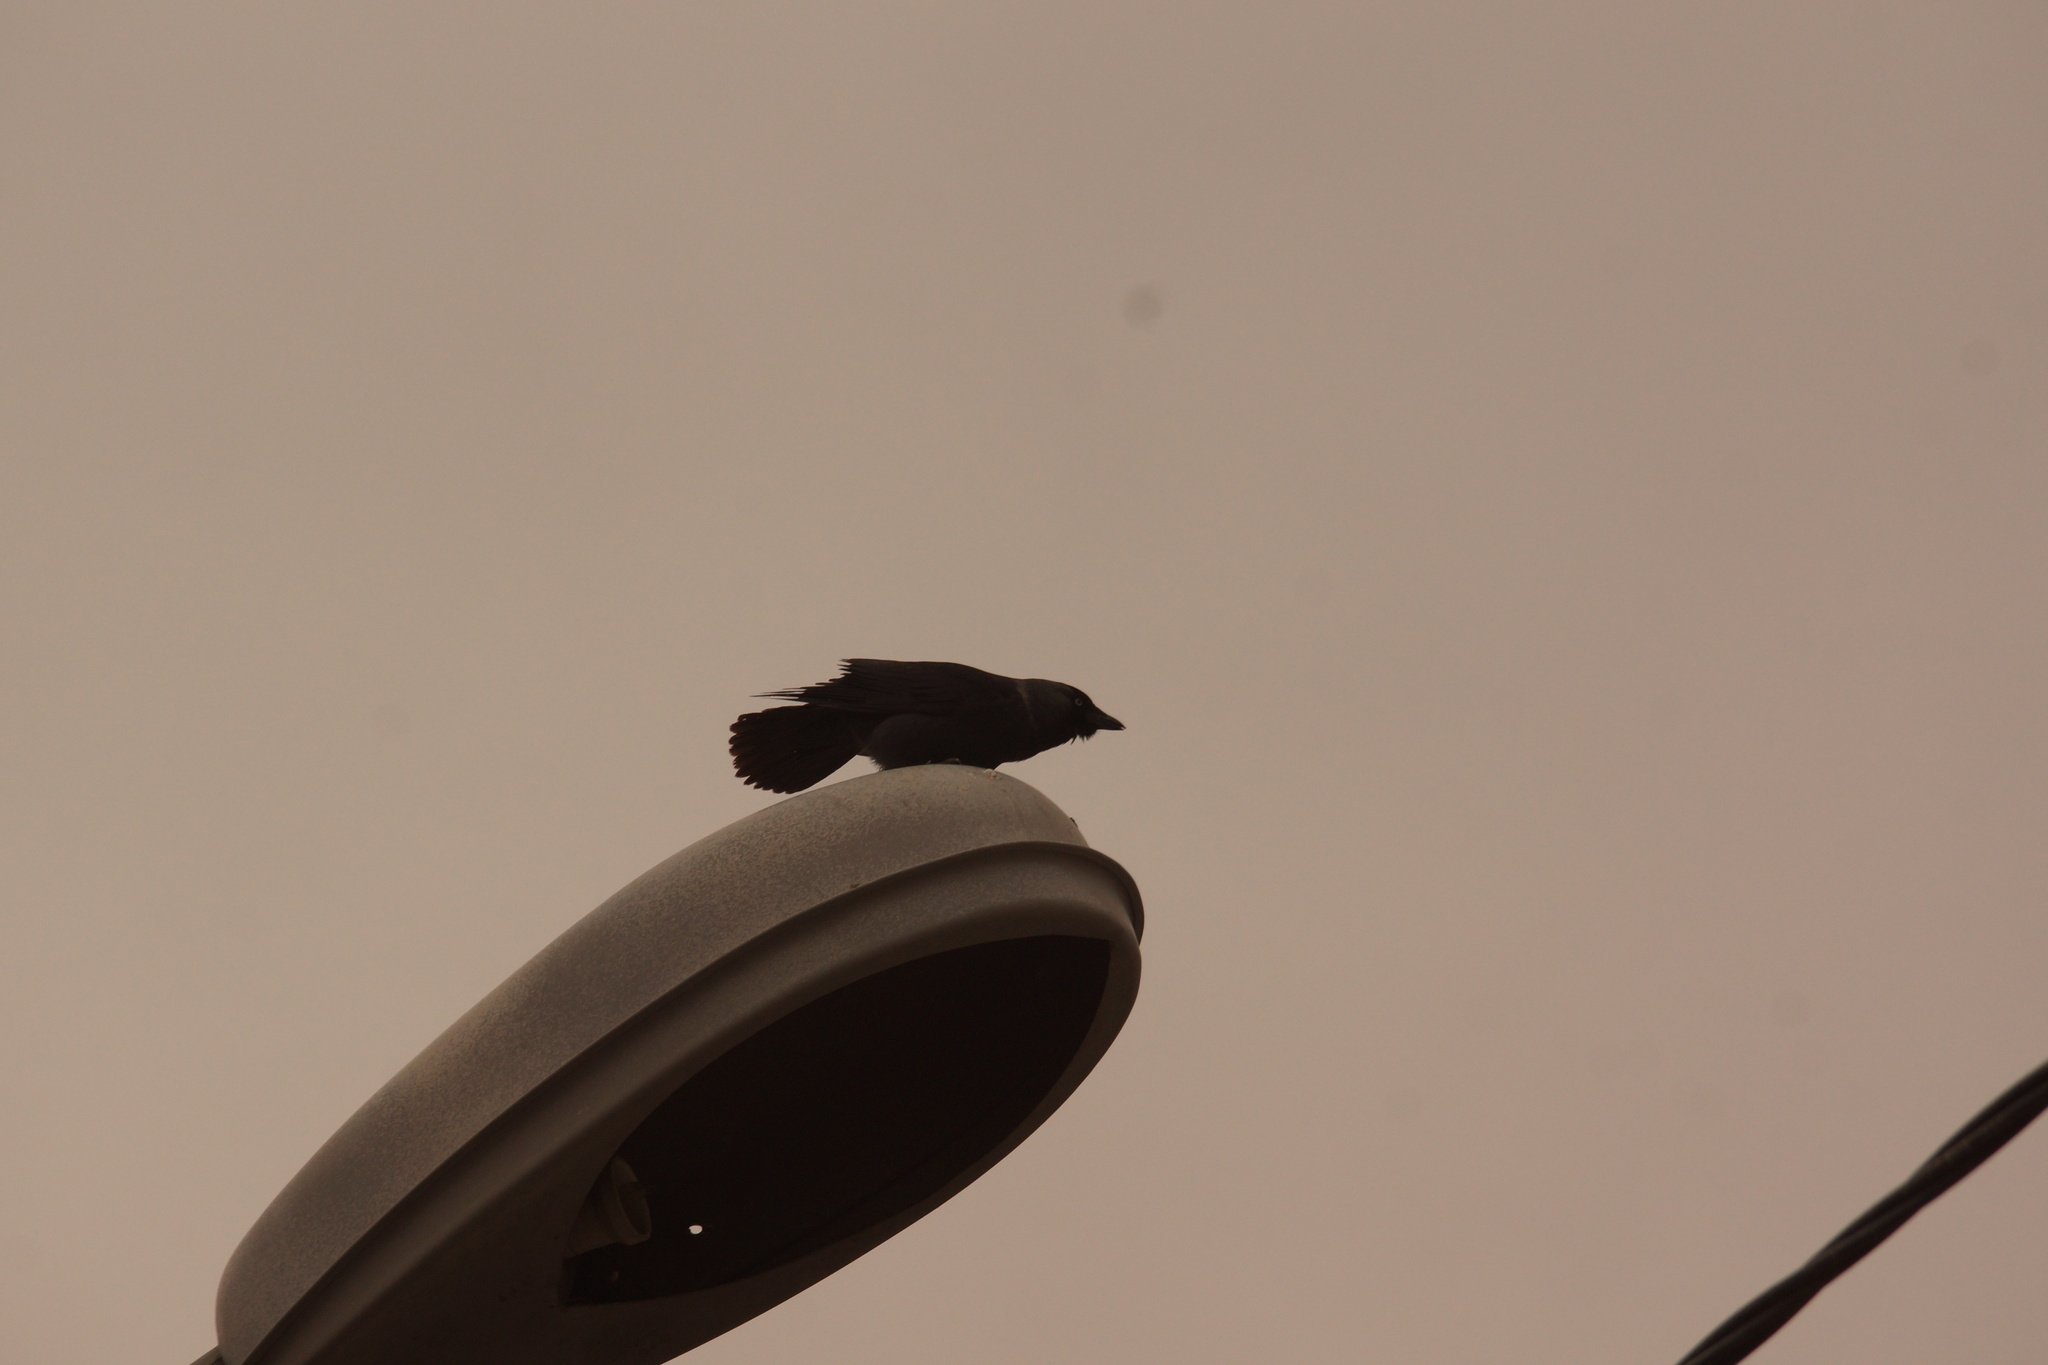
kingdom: Animalia
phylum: Chordata
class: Aves
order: Passeriformes
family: Corvidae
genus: Coloeus
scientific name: Coloeus monedula
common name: Western jackdaw
